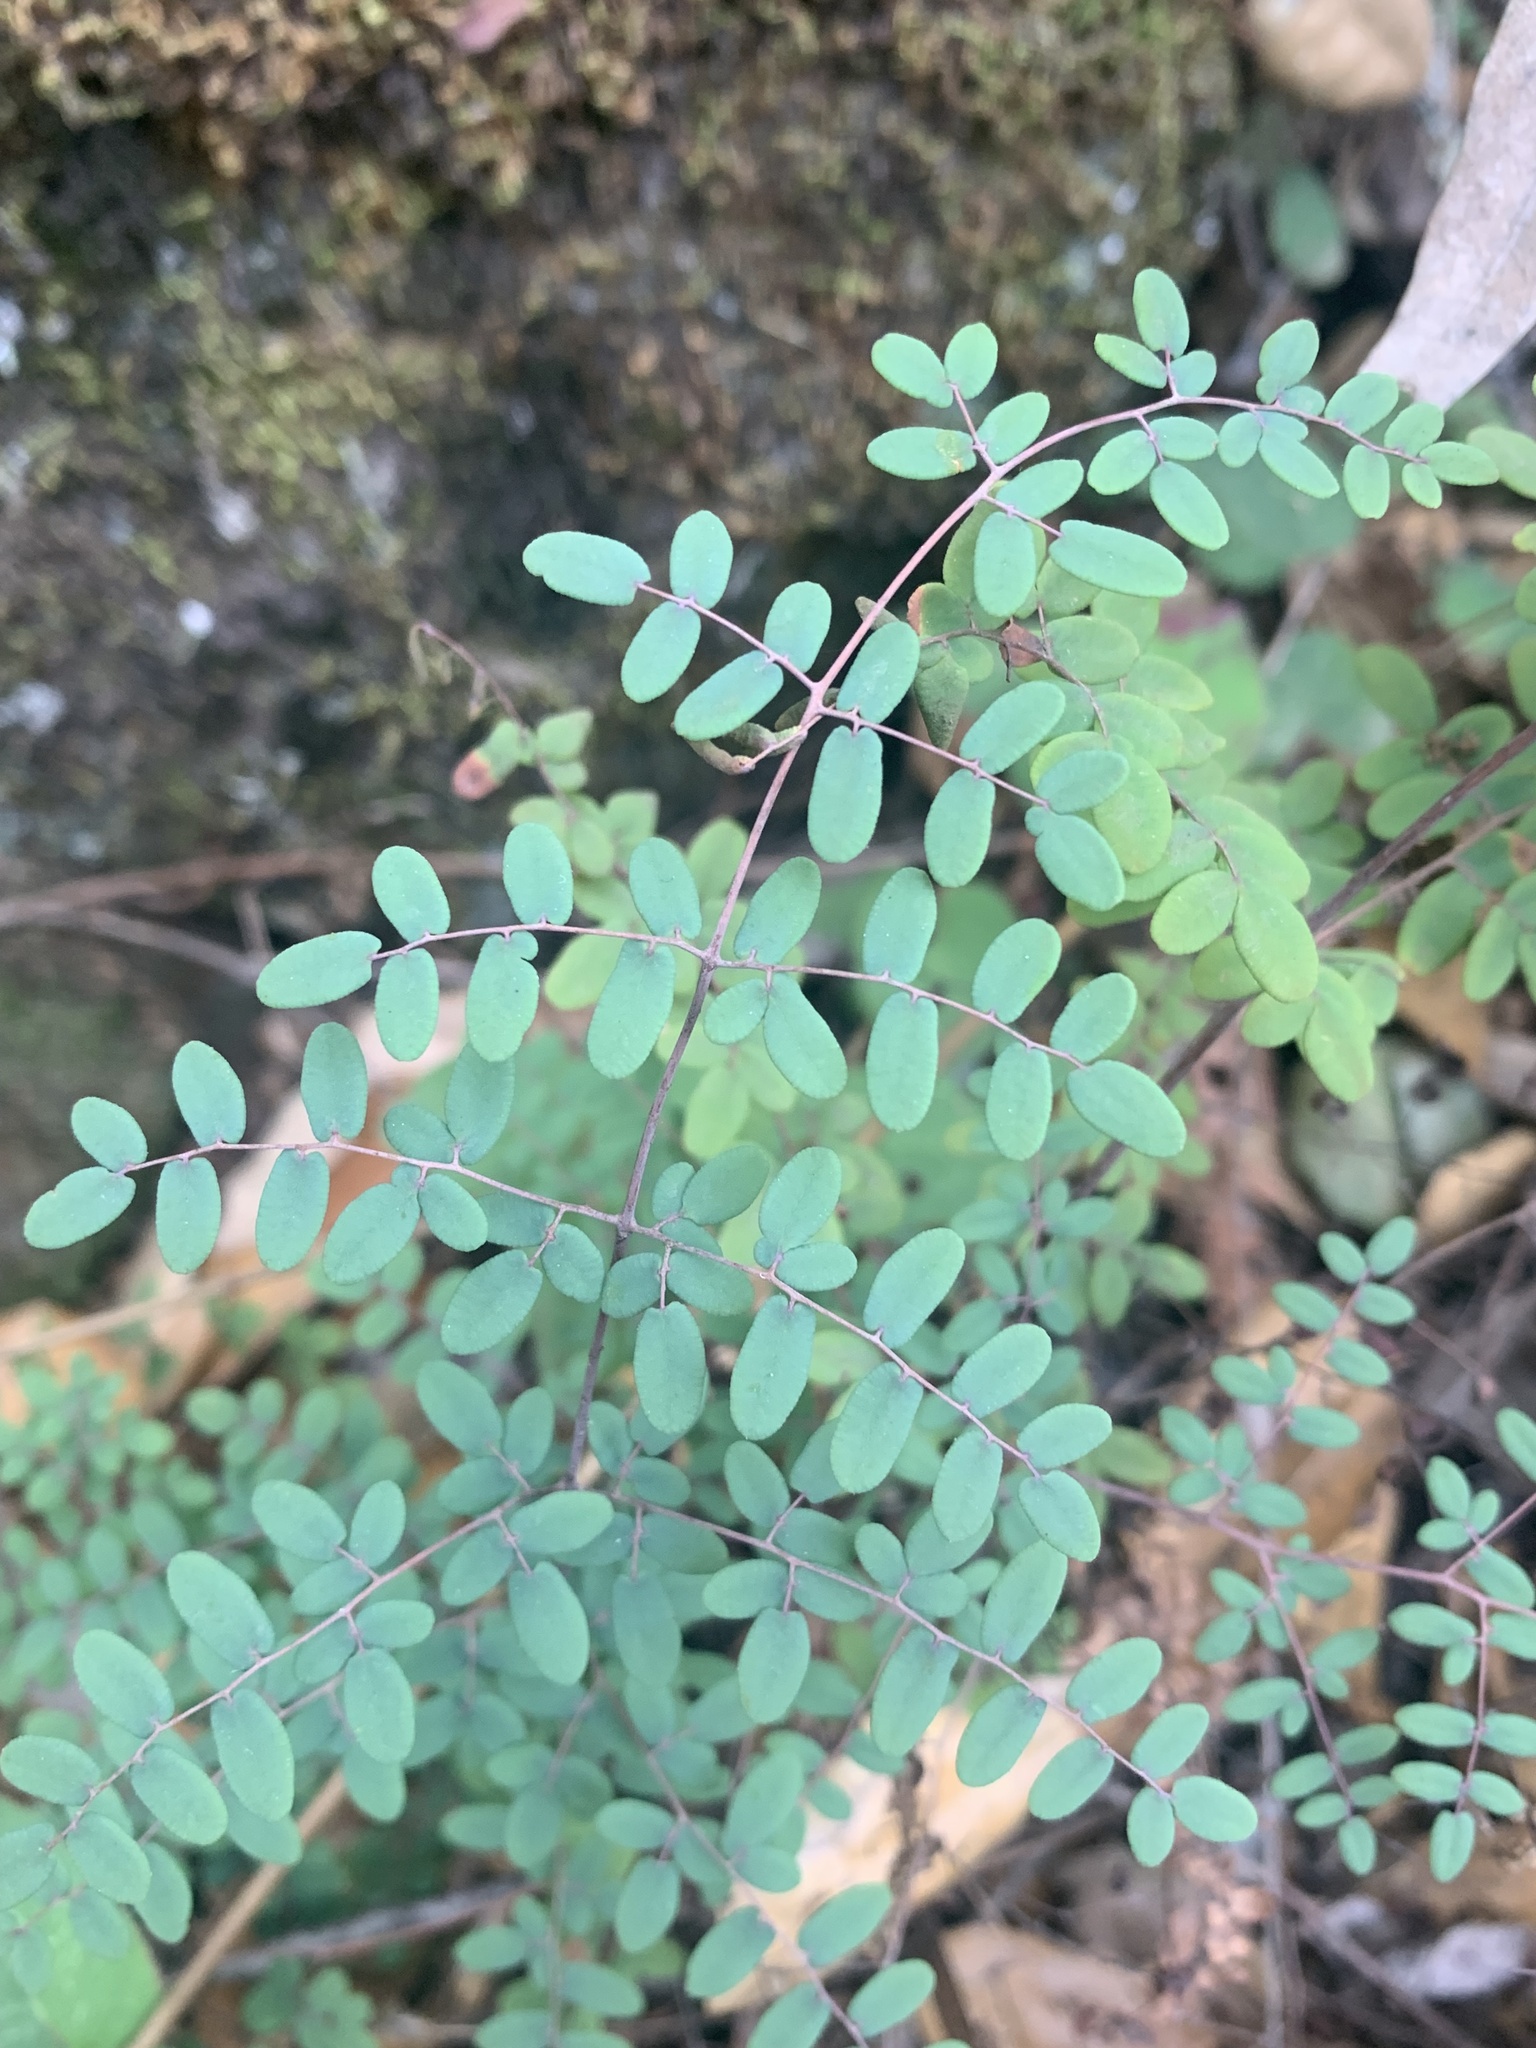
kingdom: Plantae
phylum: Tracheophyta
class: Polypodiopsida
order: Polypodiales
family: Pteridaceae
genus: Pellaea
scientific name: Pellaea andromedifolia
